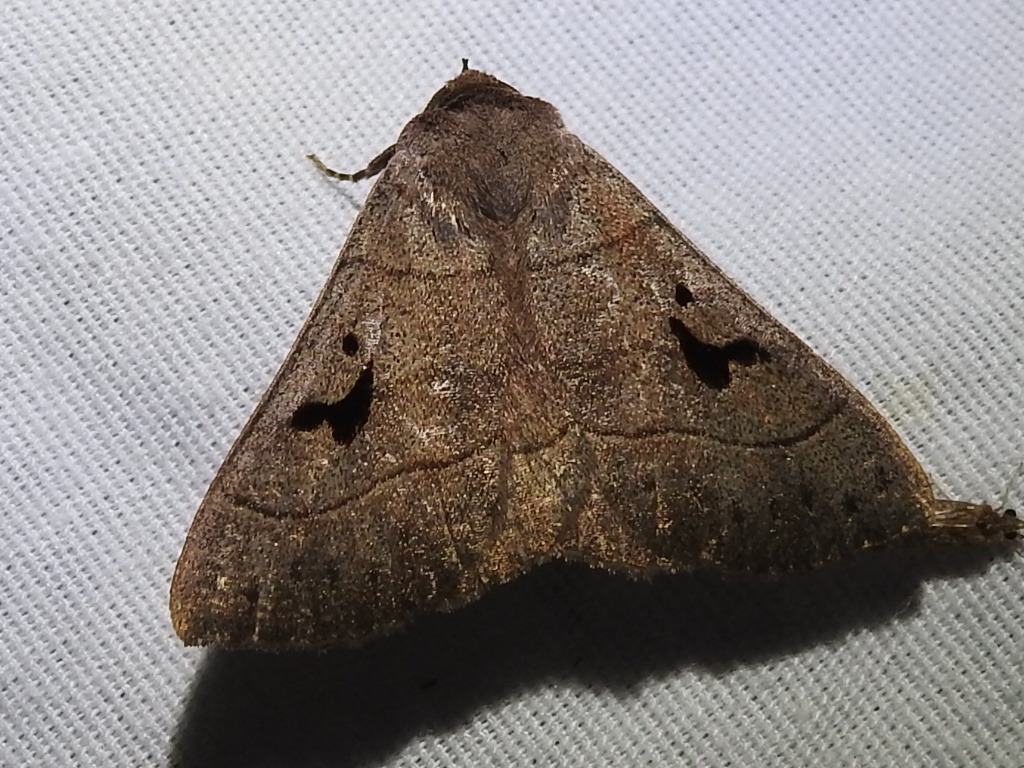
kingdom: Animalia
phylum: Arthropoda
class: Insecta
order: Lepidoptera
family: Erebidae
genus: Panopoda
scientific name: Panopoda carneicosta
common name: Brown panopoda moth
